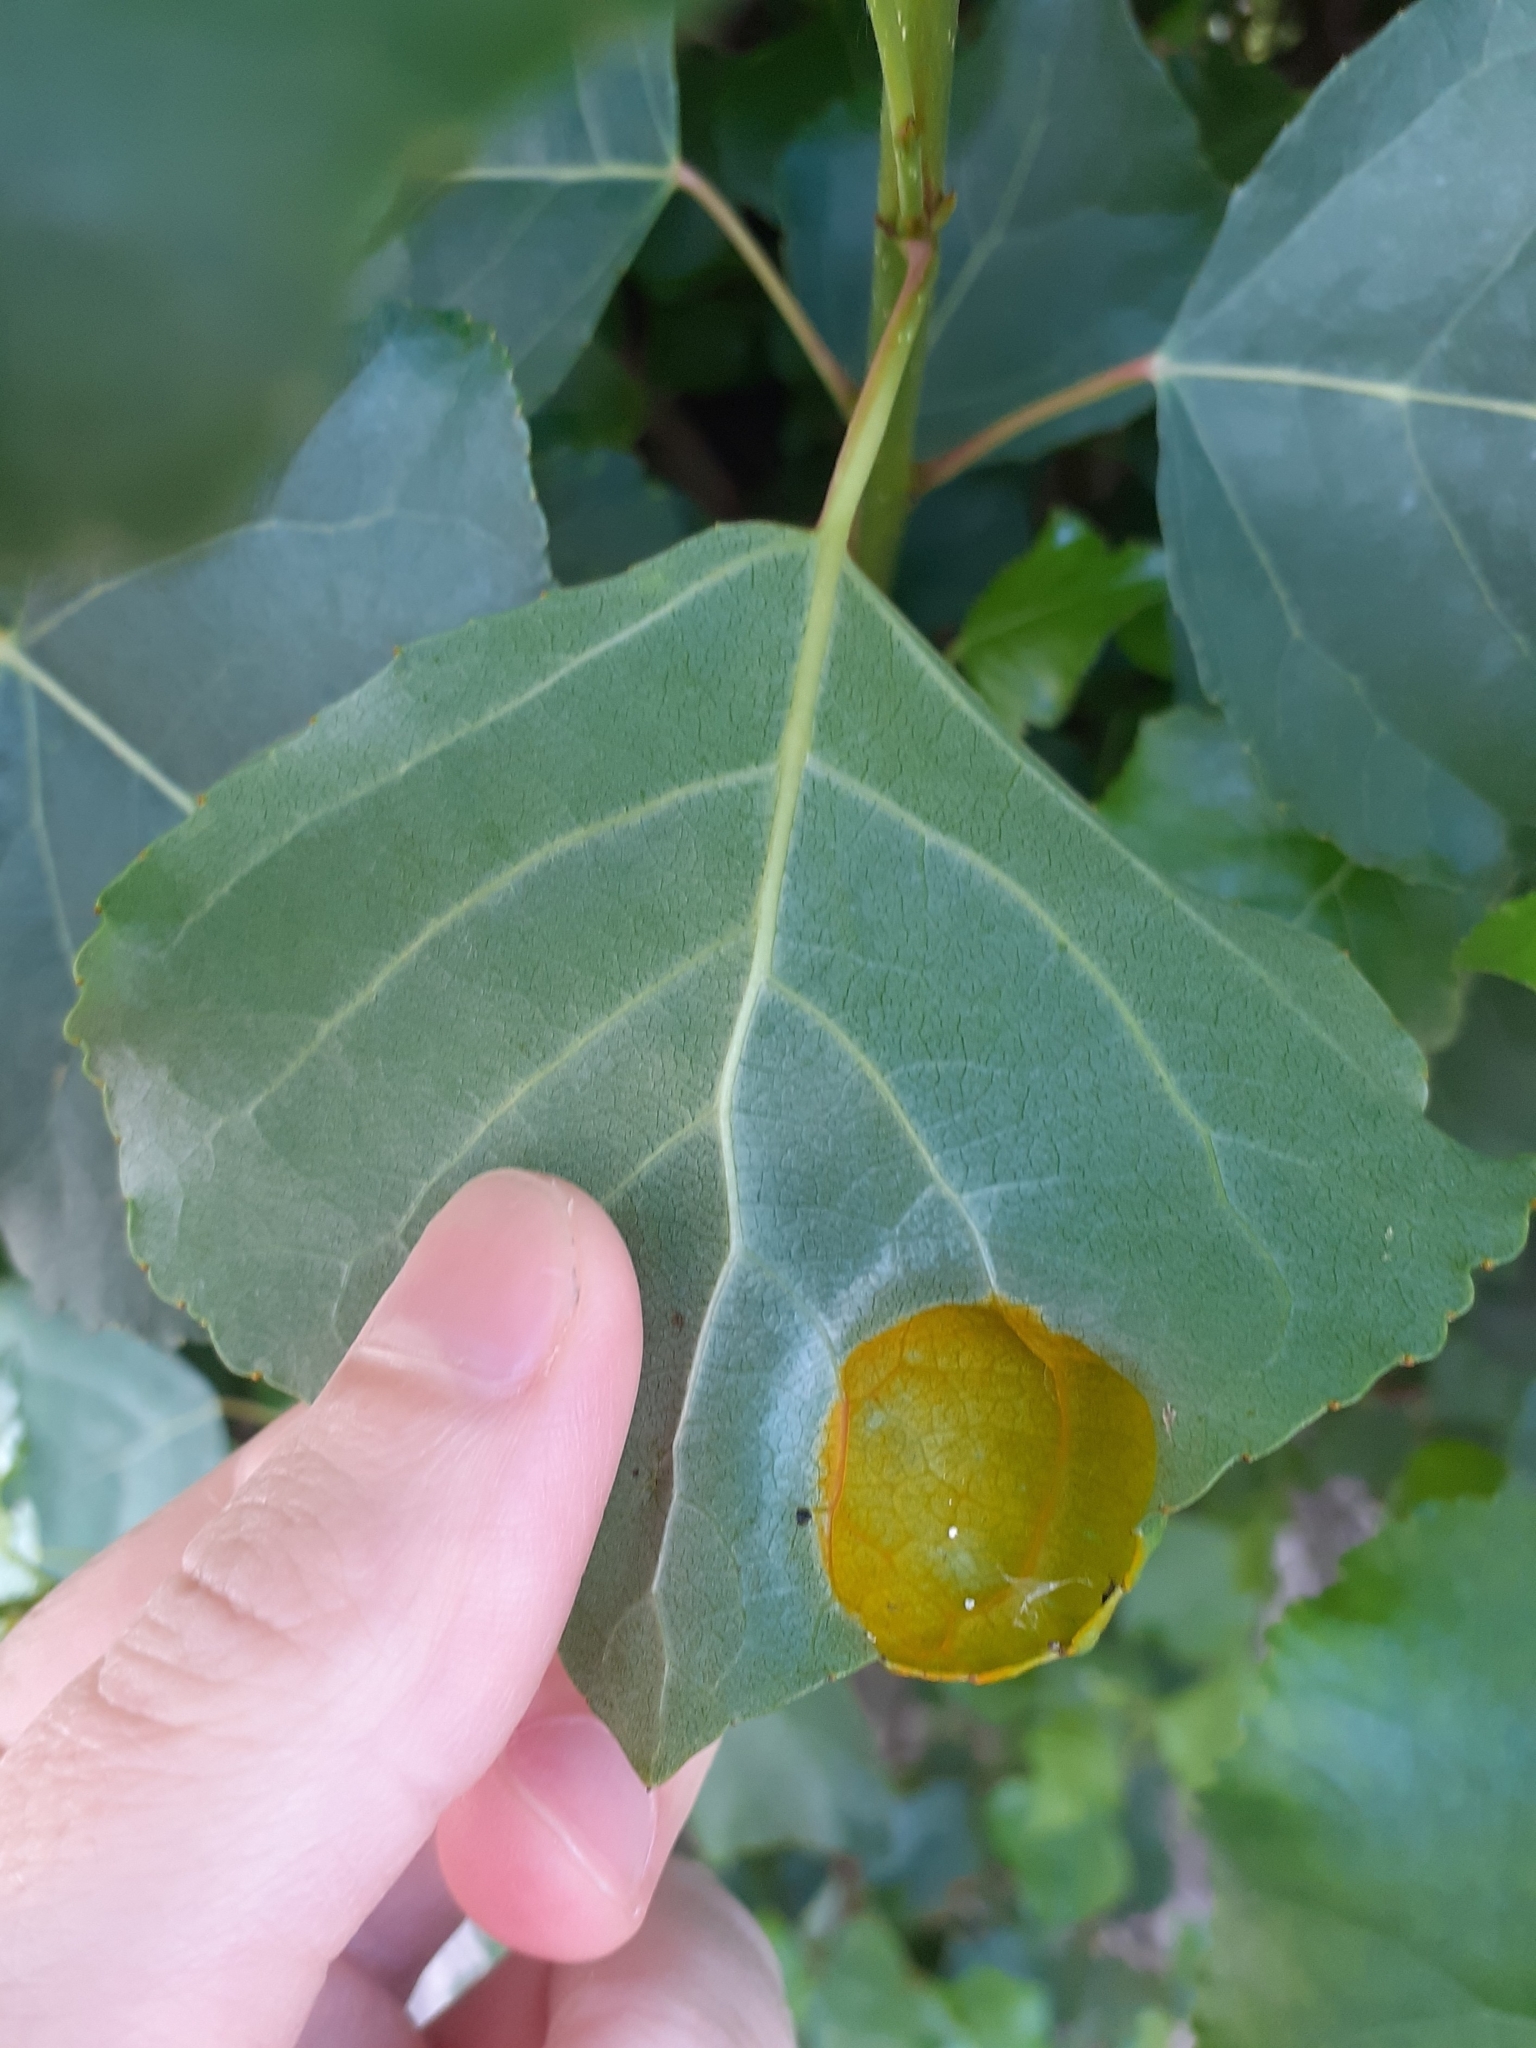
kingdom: Fungi
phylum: Ascomycota
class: Taphrinomycetes
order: Taphrinales
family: Taphrinaceae
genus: Taphrina
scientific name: Taphrina populina
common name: Poplar leaf curl
